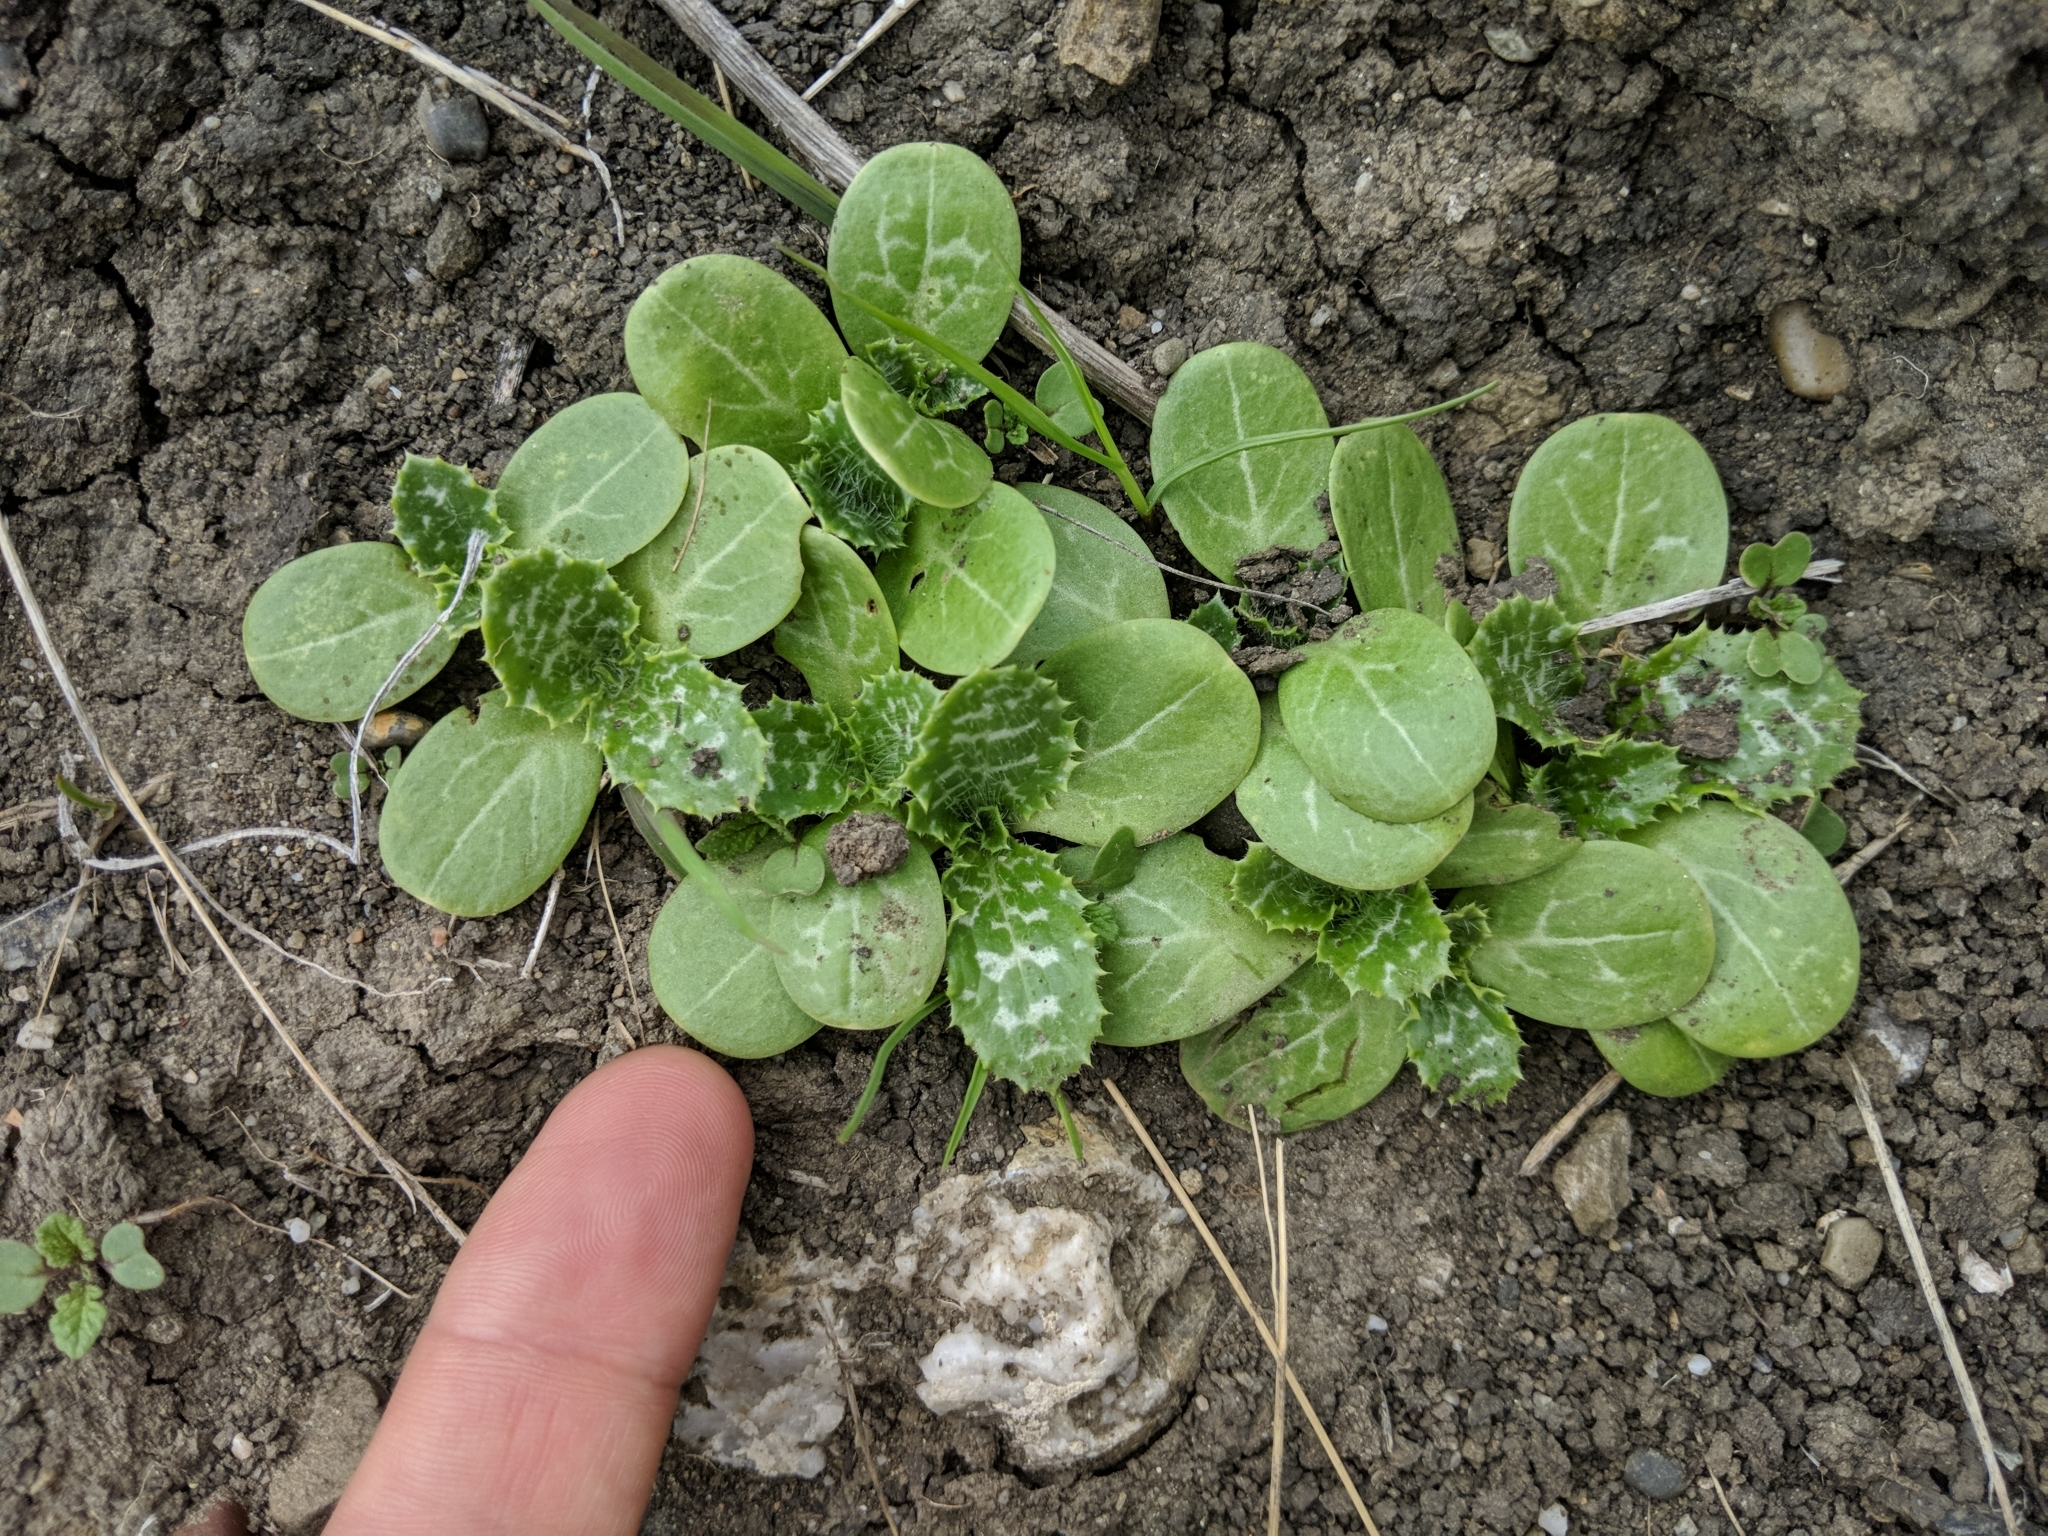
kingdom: Plantae
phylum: Tracheophyta
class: Magnoliopsida
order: Asterales
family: Asteraceae
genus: Silybum
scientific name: Silybum marianum
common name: Milk thistle
